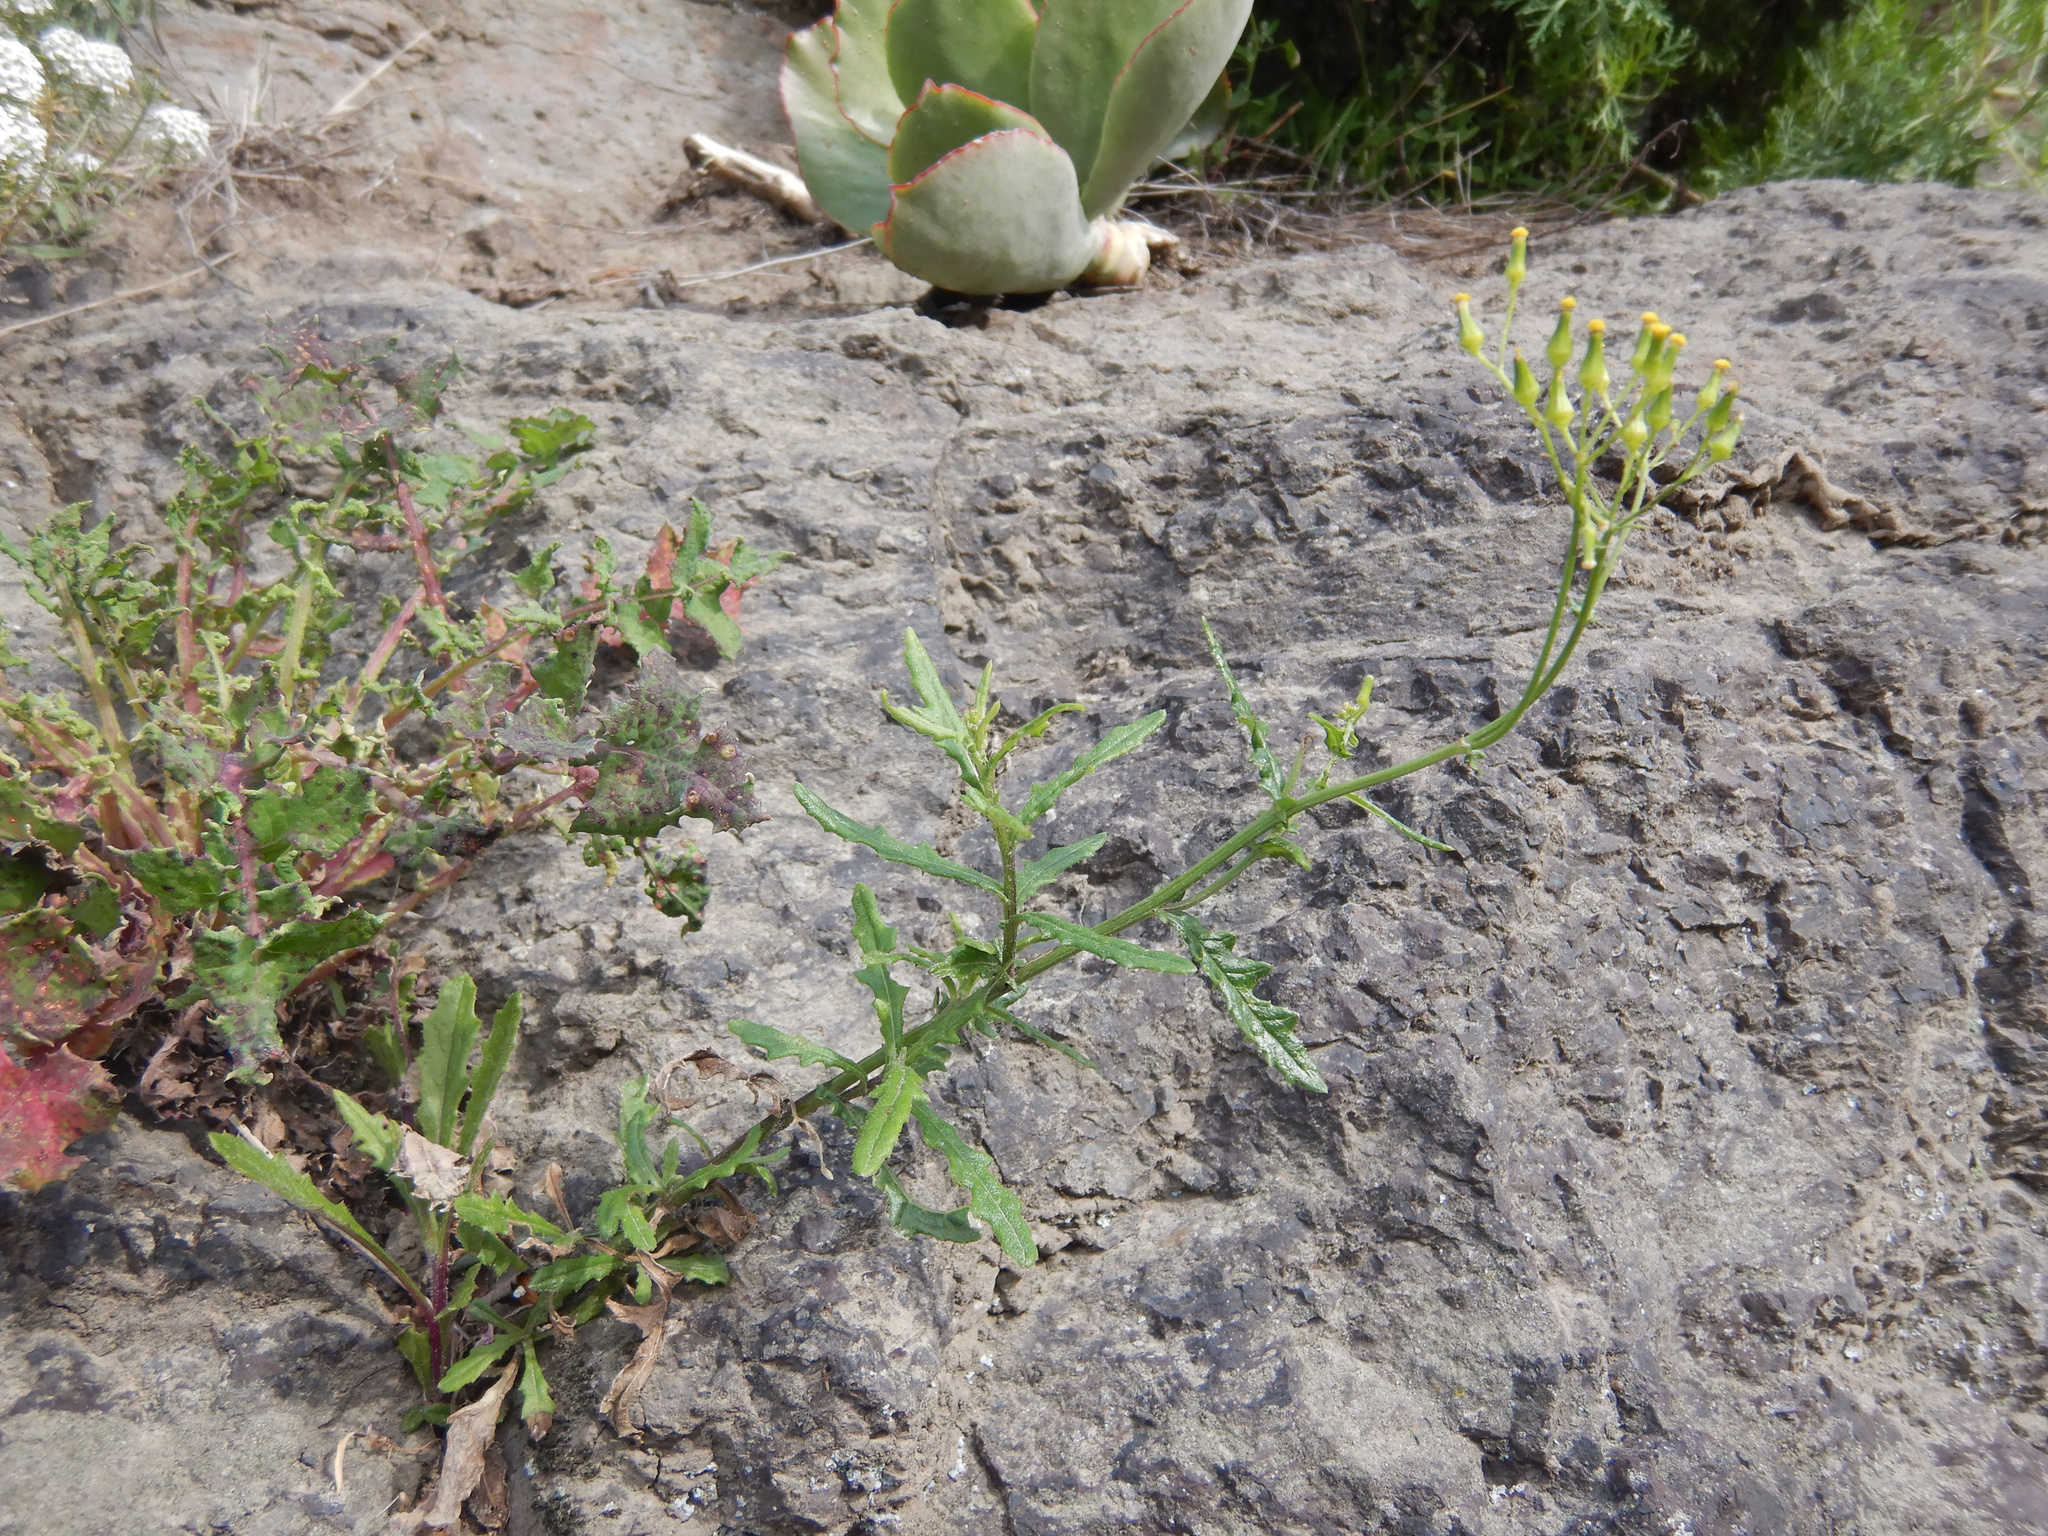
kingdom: Plantae
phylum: Tracheophyta
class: Magnoliopsida
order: Asterales
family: Asteraceae
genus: Senecio
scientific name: Senecio hispidulus
